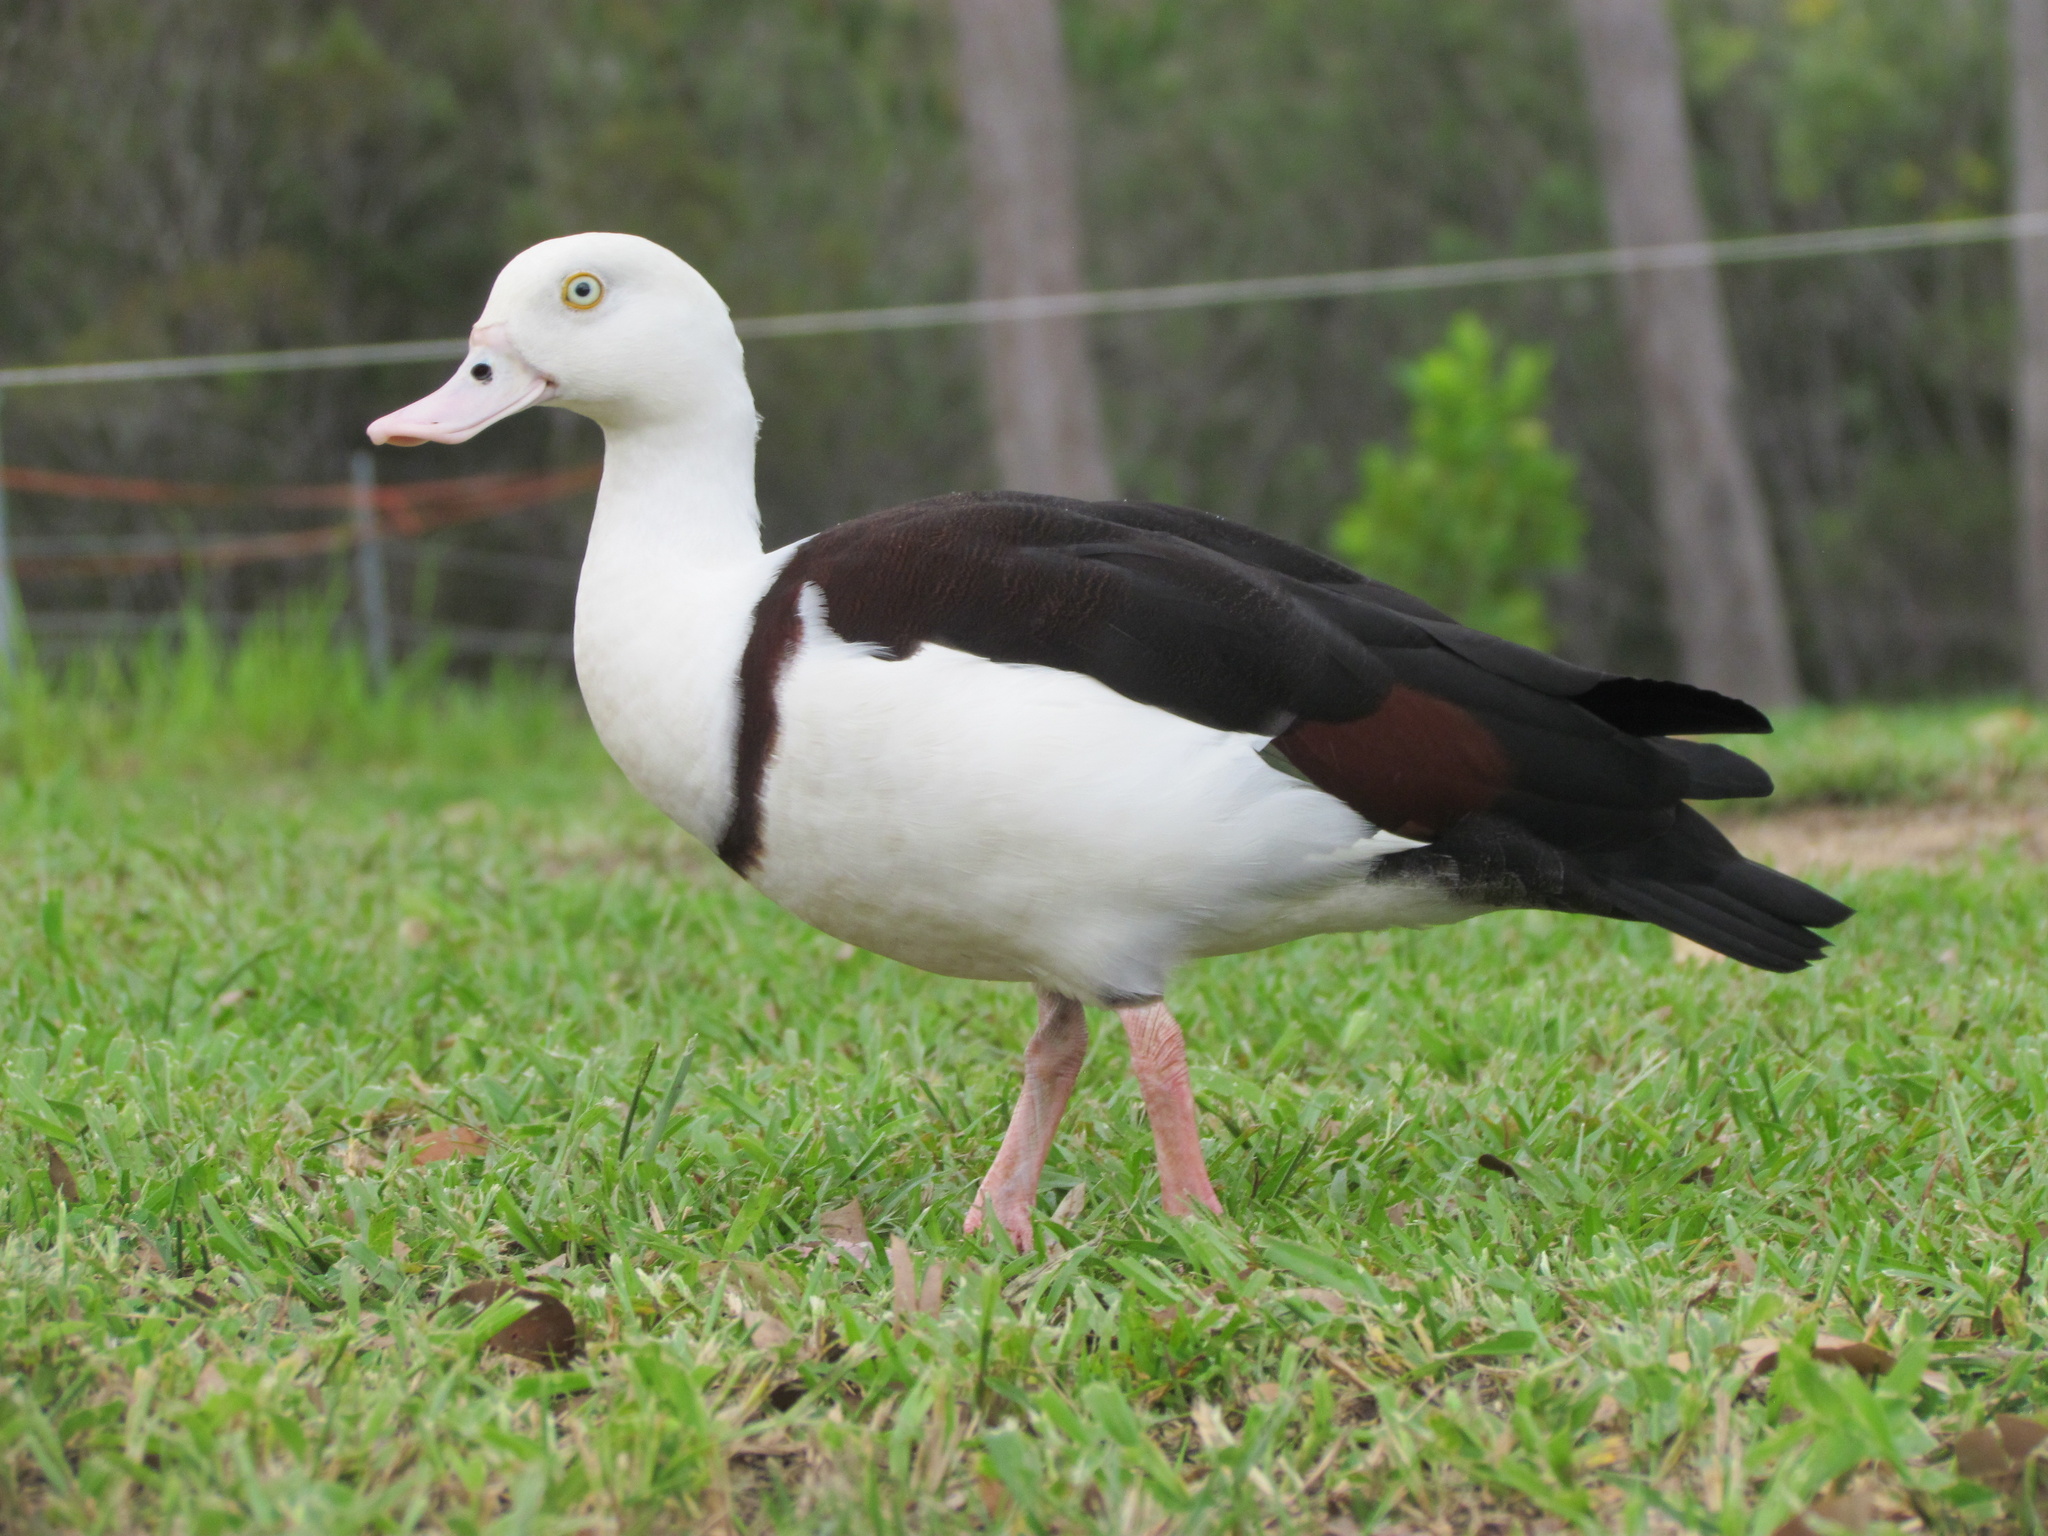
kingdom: Animalia
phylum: Chordata
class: Aves
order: Anseriformes
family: Anatidae
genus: Radjah
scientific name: Radjah radjah
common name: Radjah shelduck
